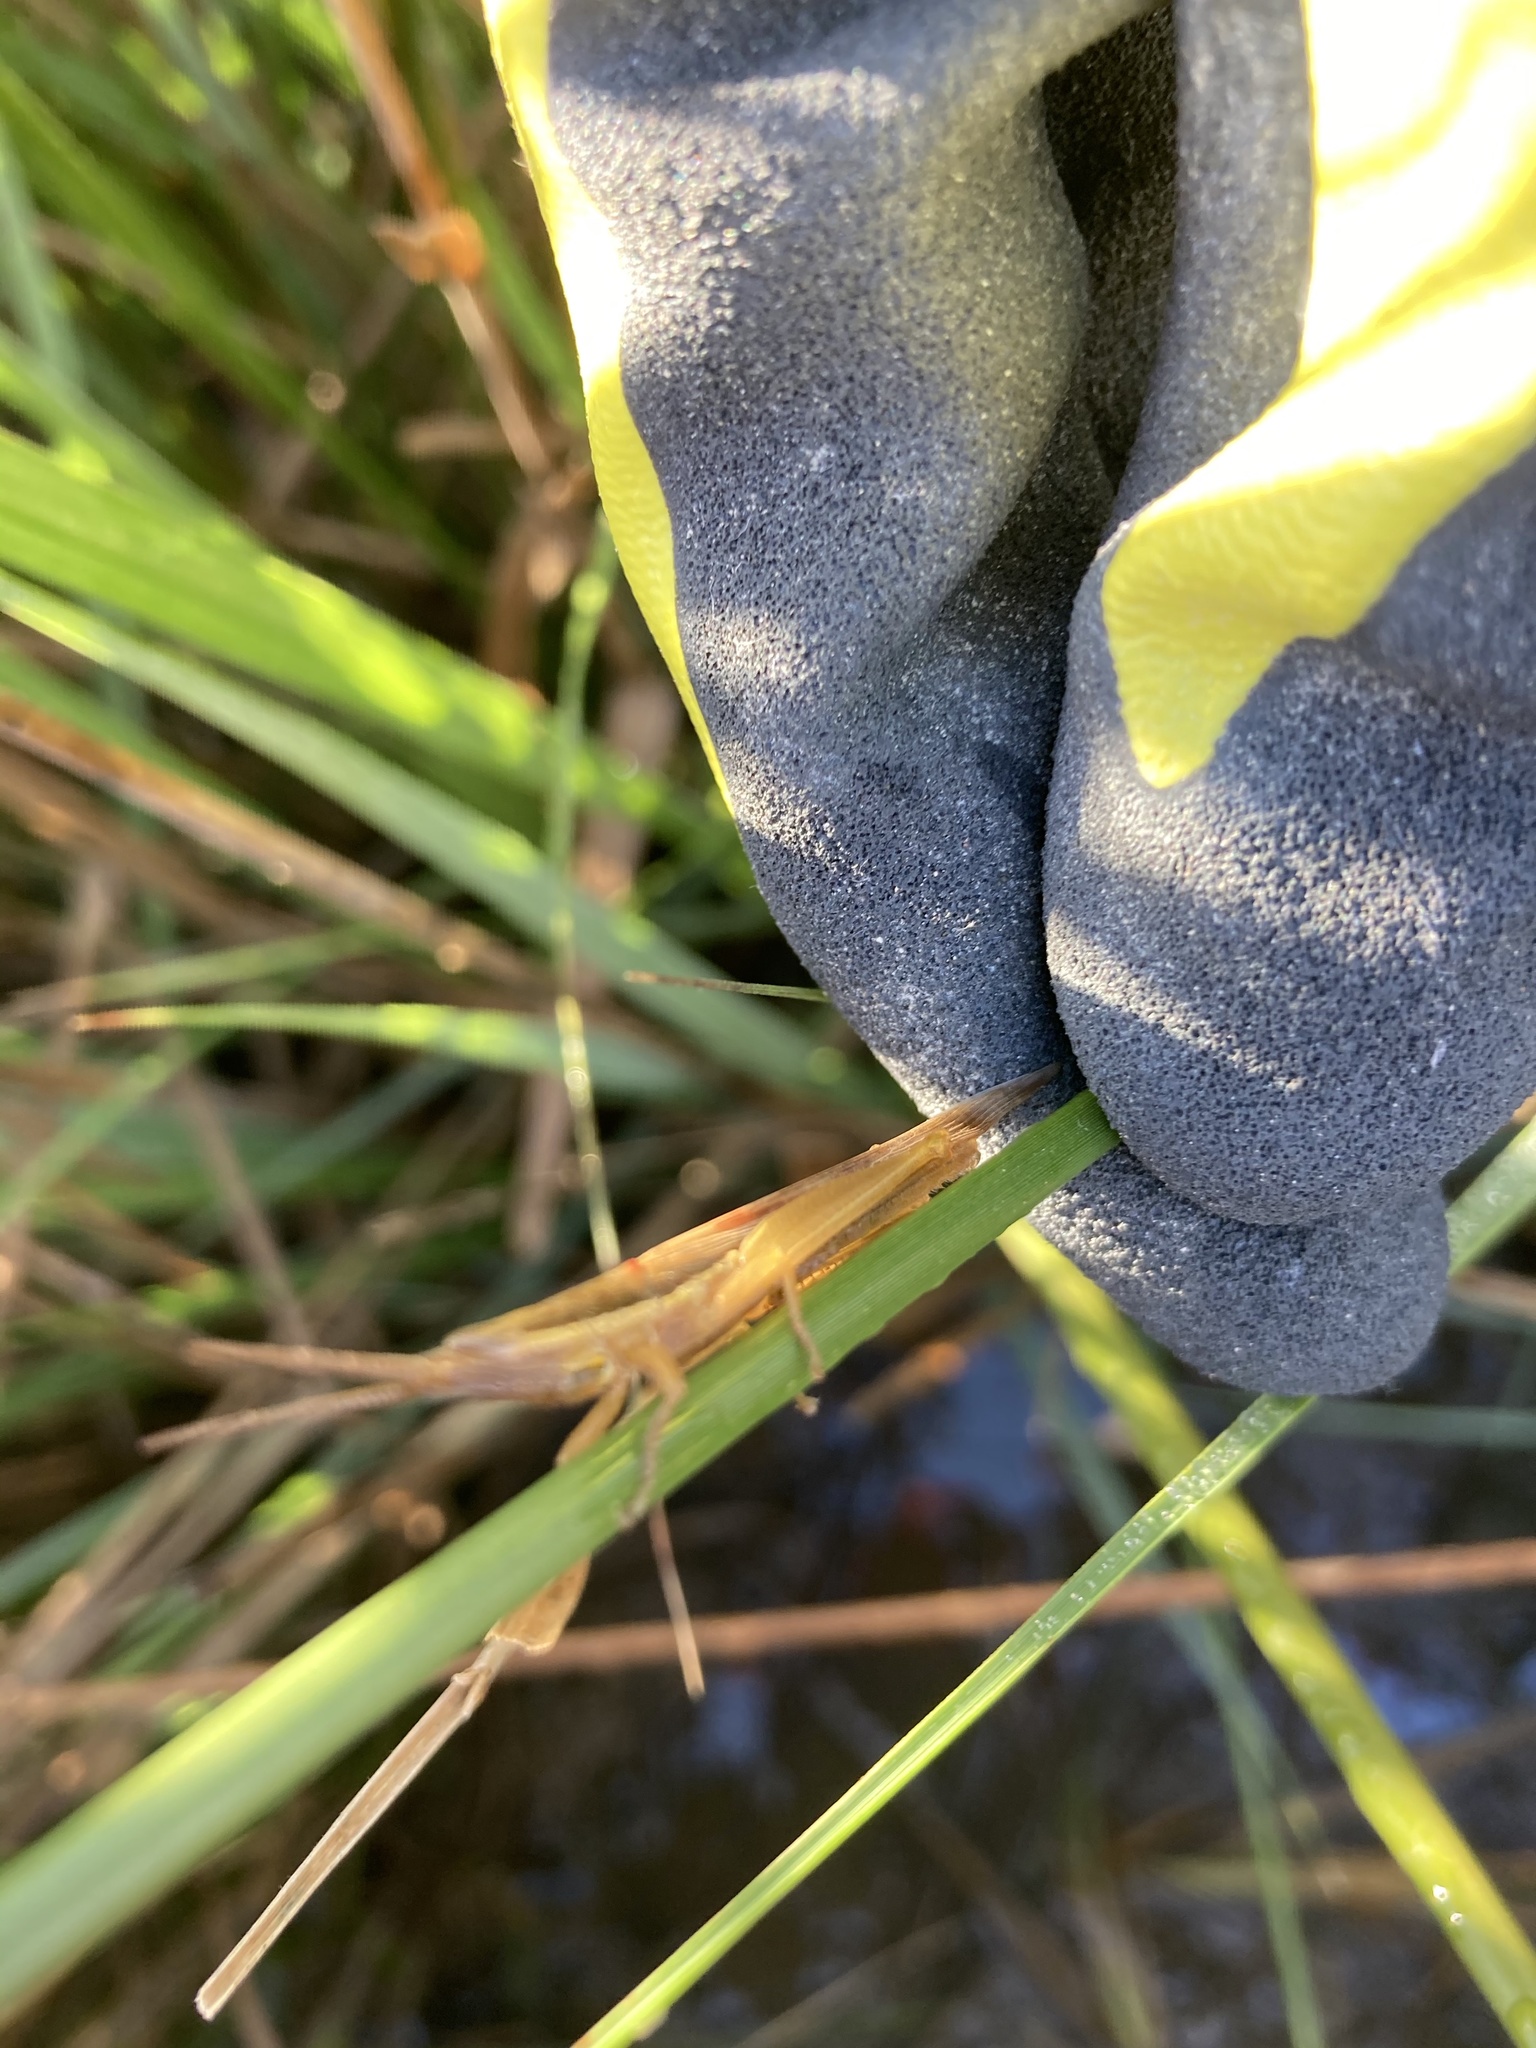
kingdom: Animalia
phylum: Arthropoda
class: Insecta
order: Orthoptera
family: Acrididae
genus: Leptysma
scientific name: Leptysma marginicollis
